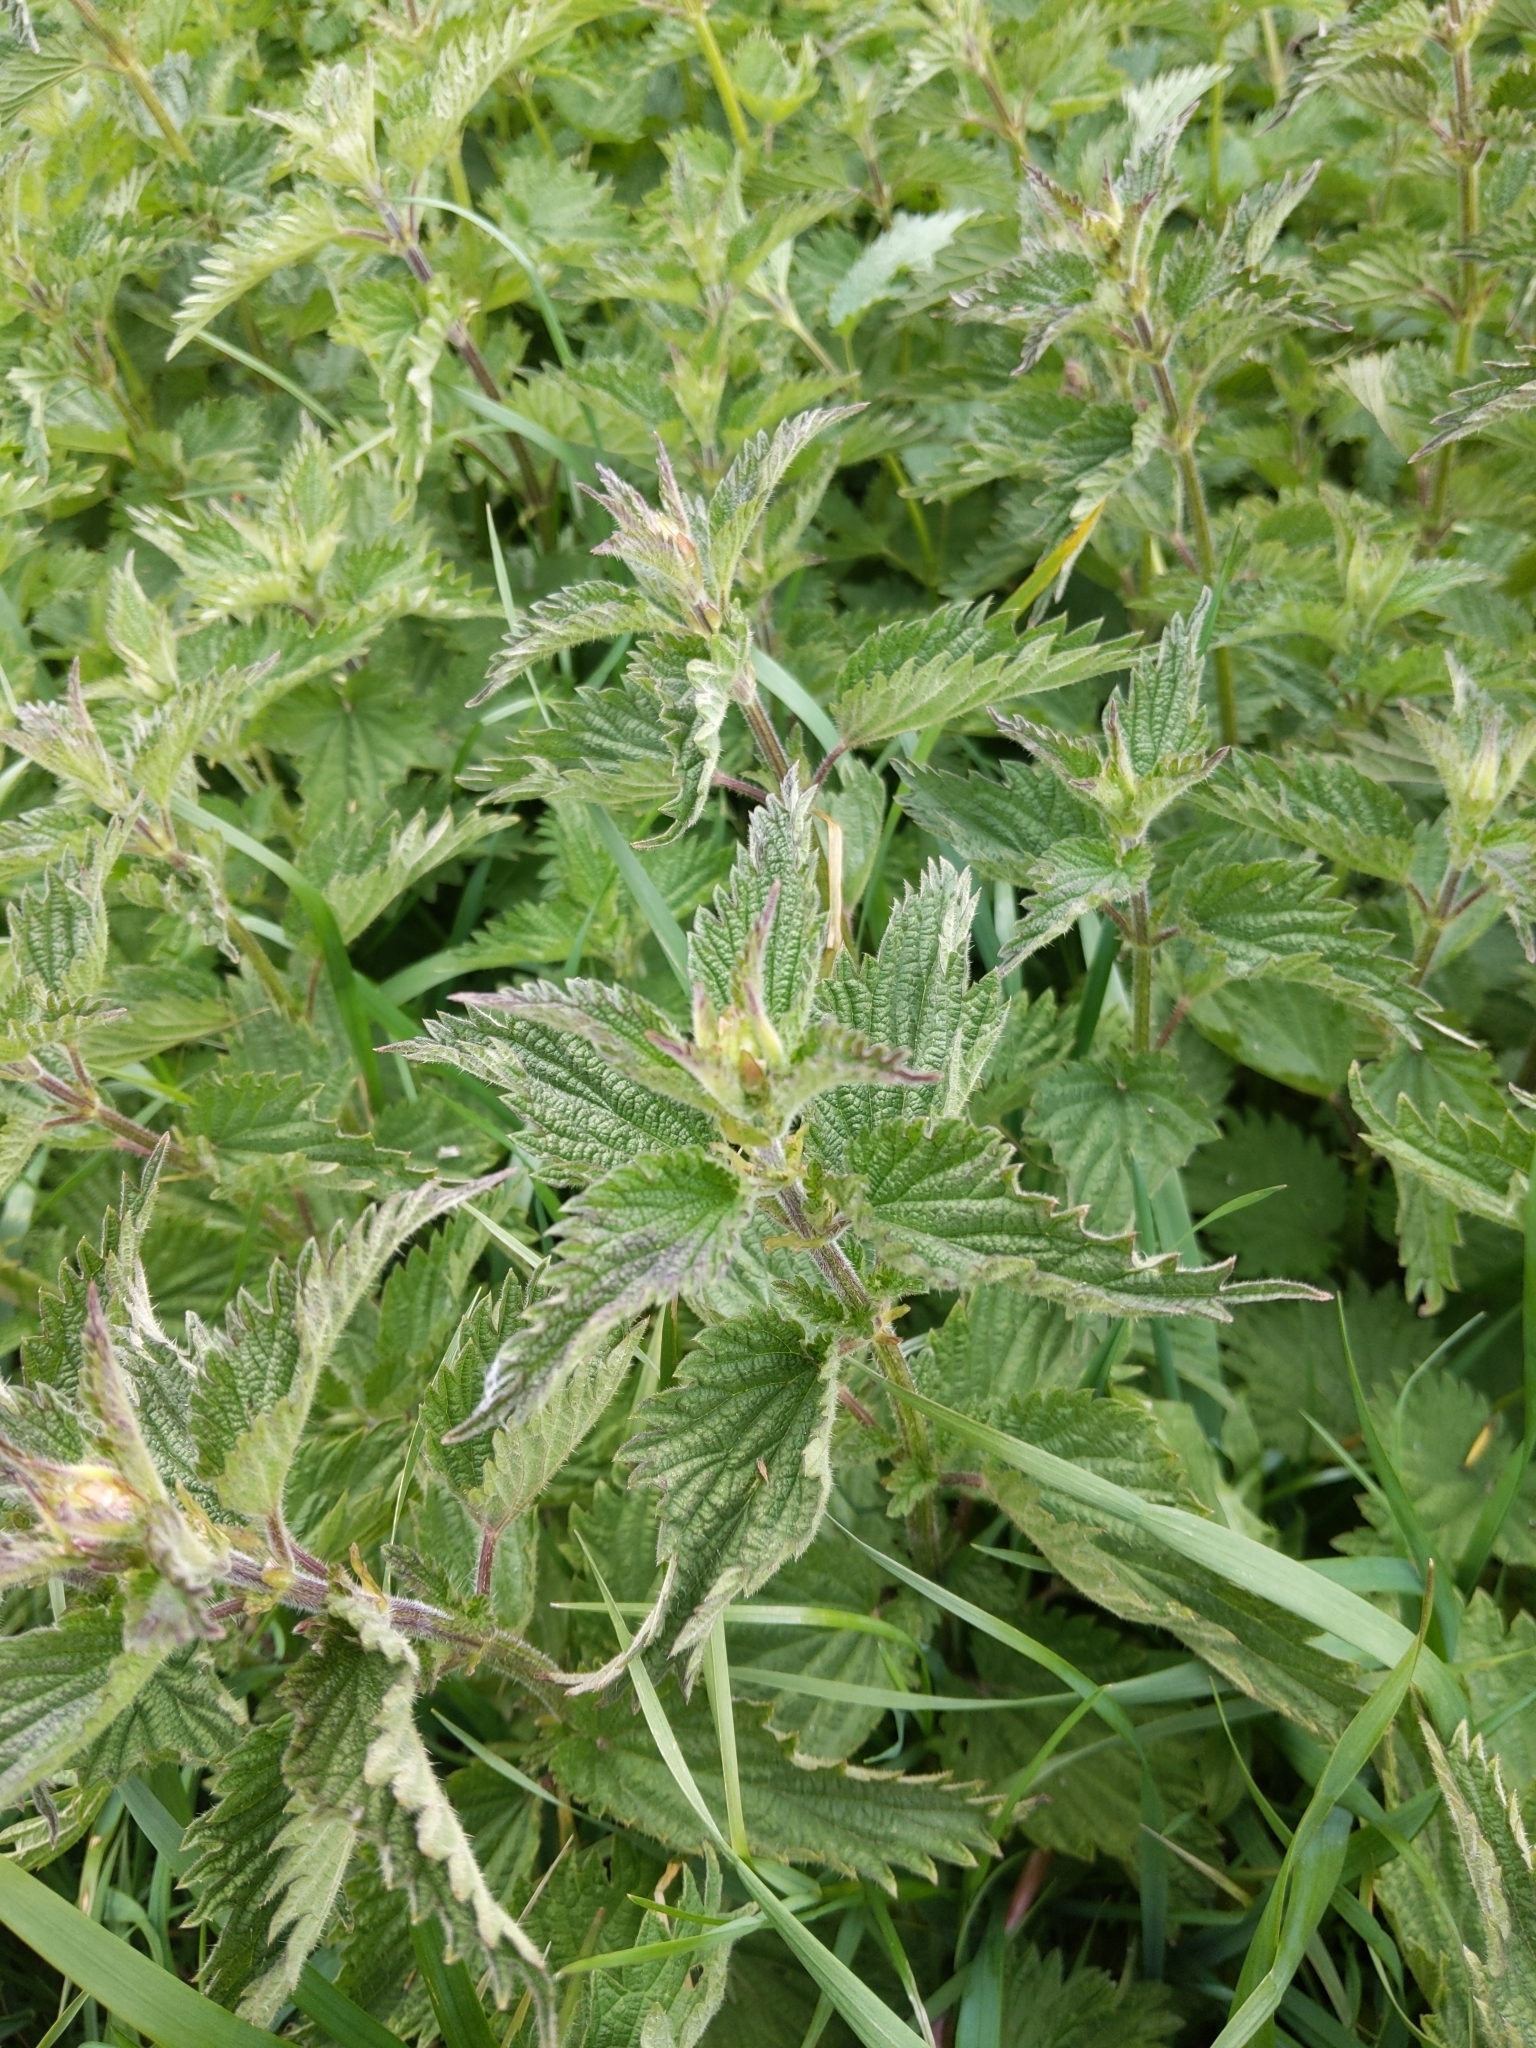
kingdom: Plantae
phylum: Tracheophyta
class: Magnoliopsida
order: Rosales
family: Urticaceae
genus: Urtica
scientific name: Urtica dioica
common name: Common nettle
